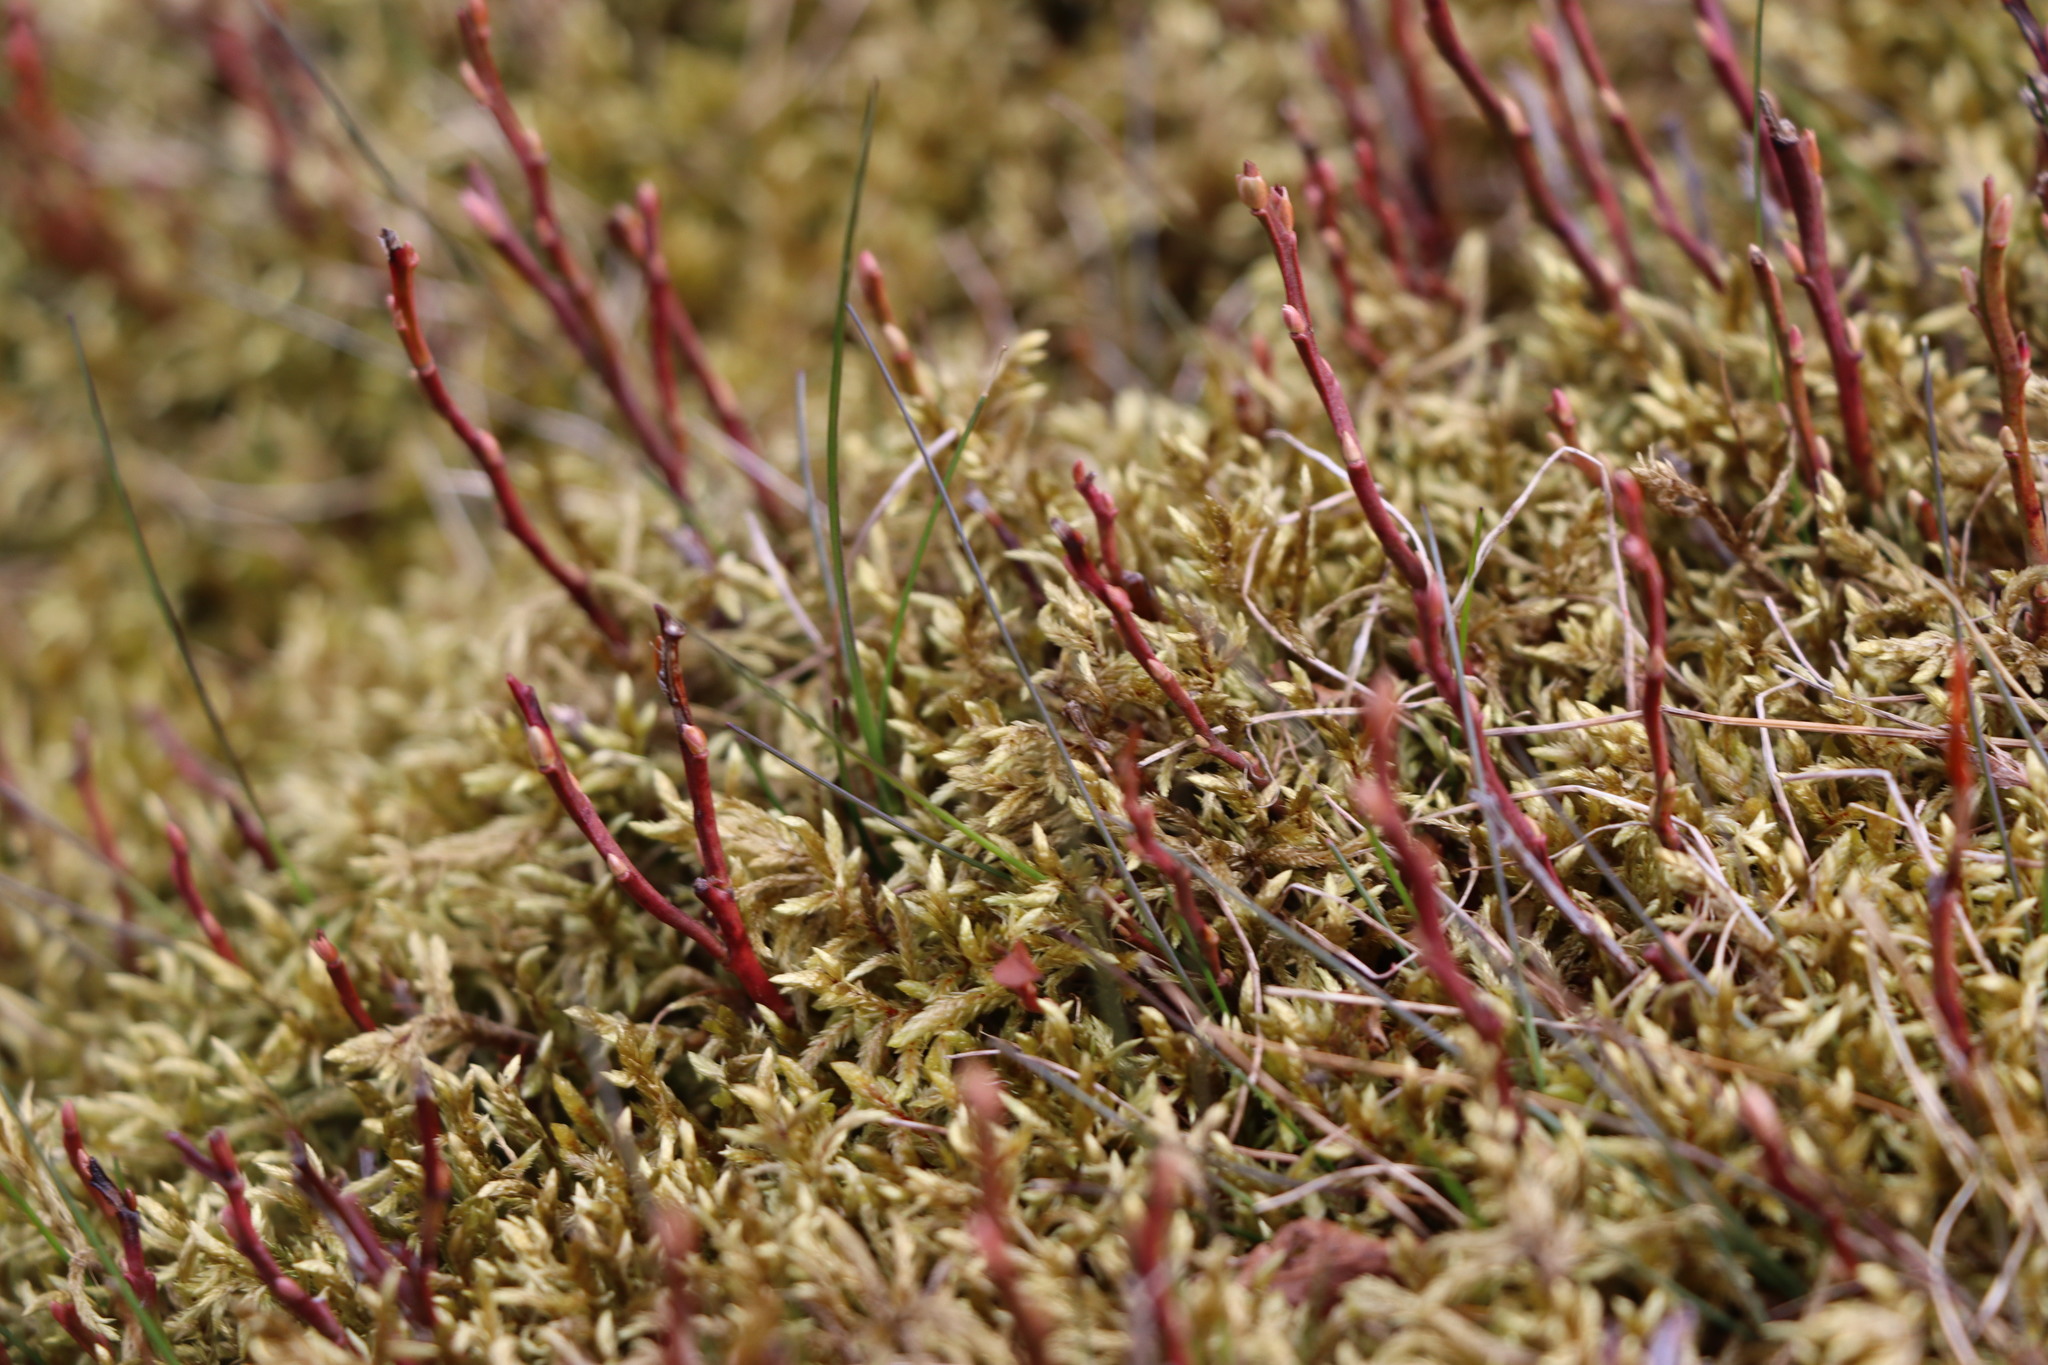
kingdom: Plantae
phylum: Bryophyta
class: Bryopsida
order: Hypnales
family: Hylocomiaceae
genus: Pleurozium
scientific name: Pleurozium schreberi
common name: Red-stemmed feather moss
